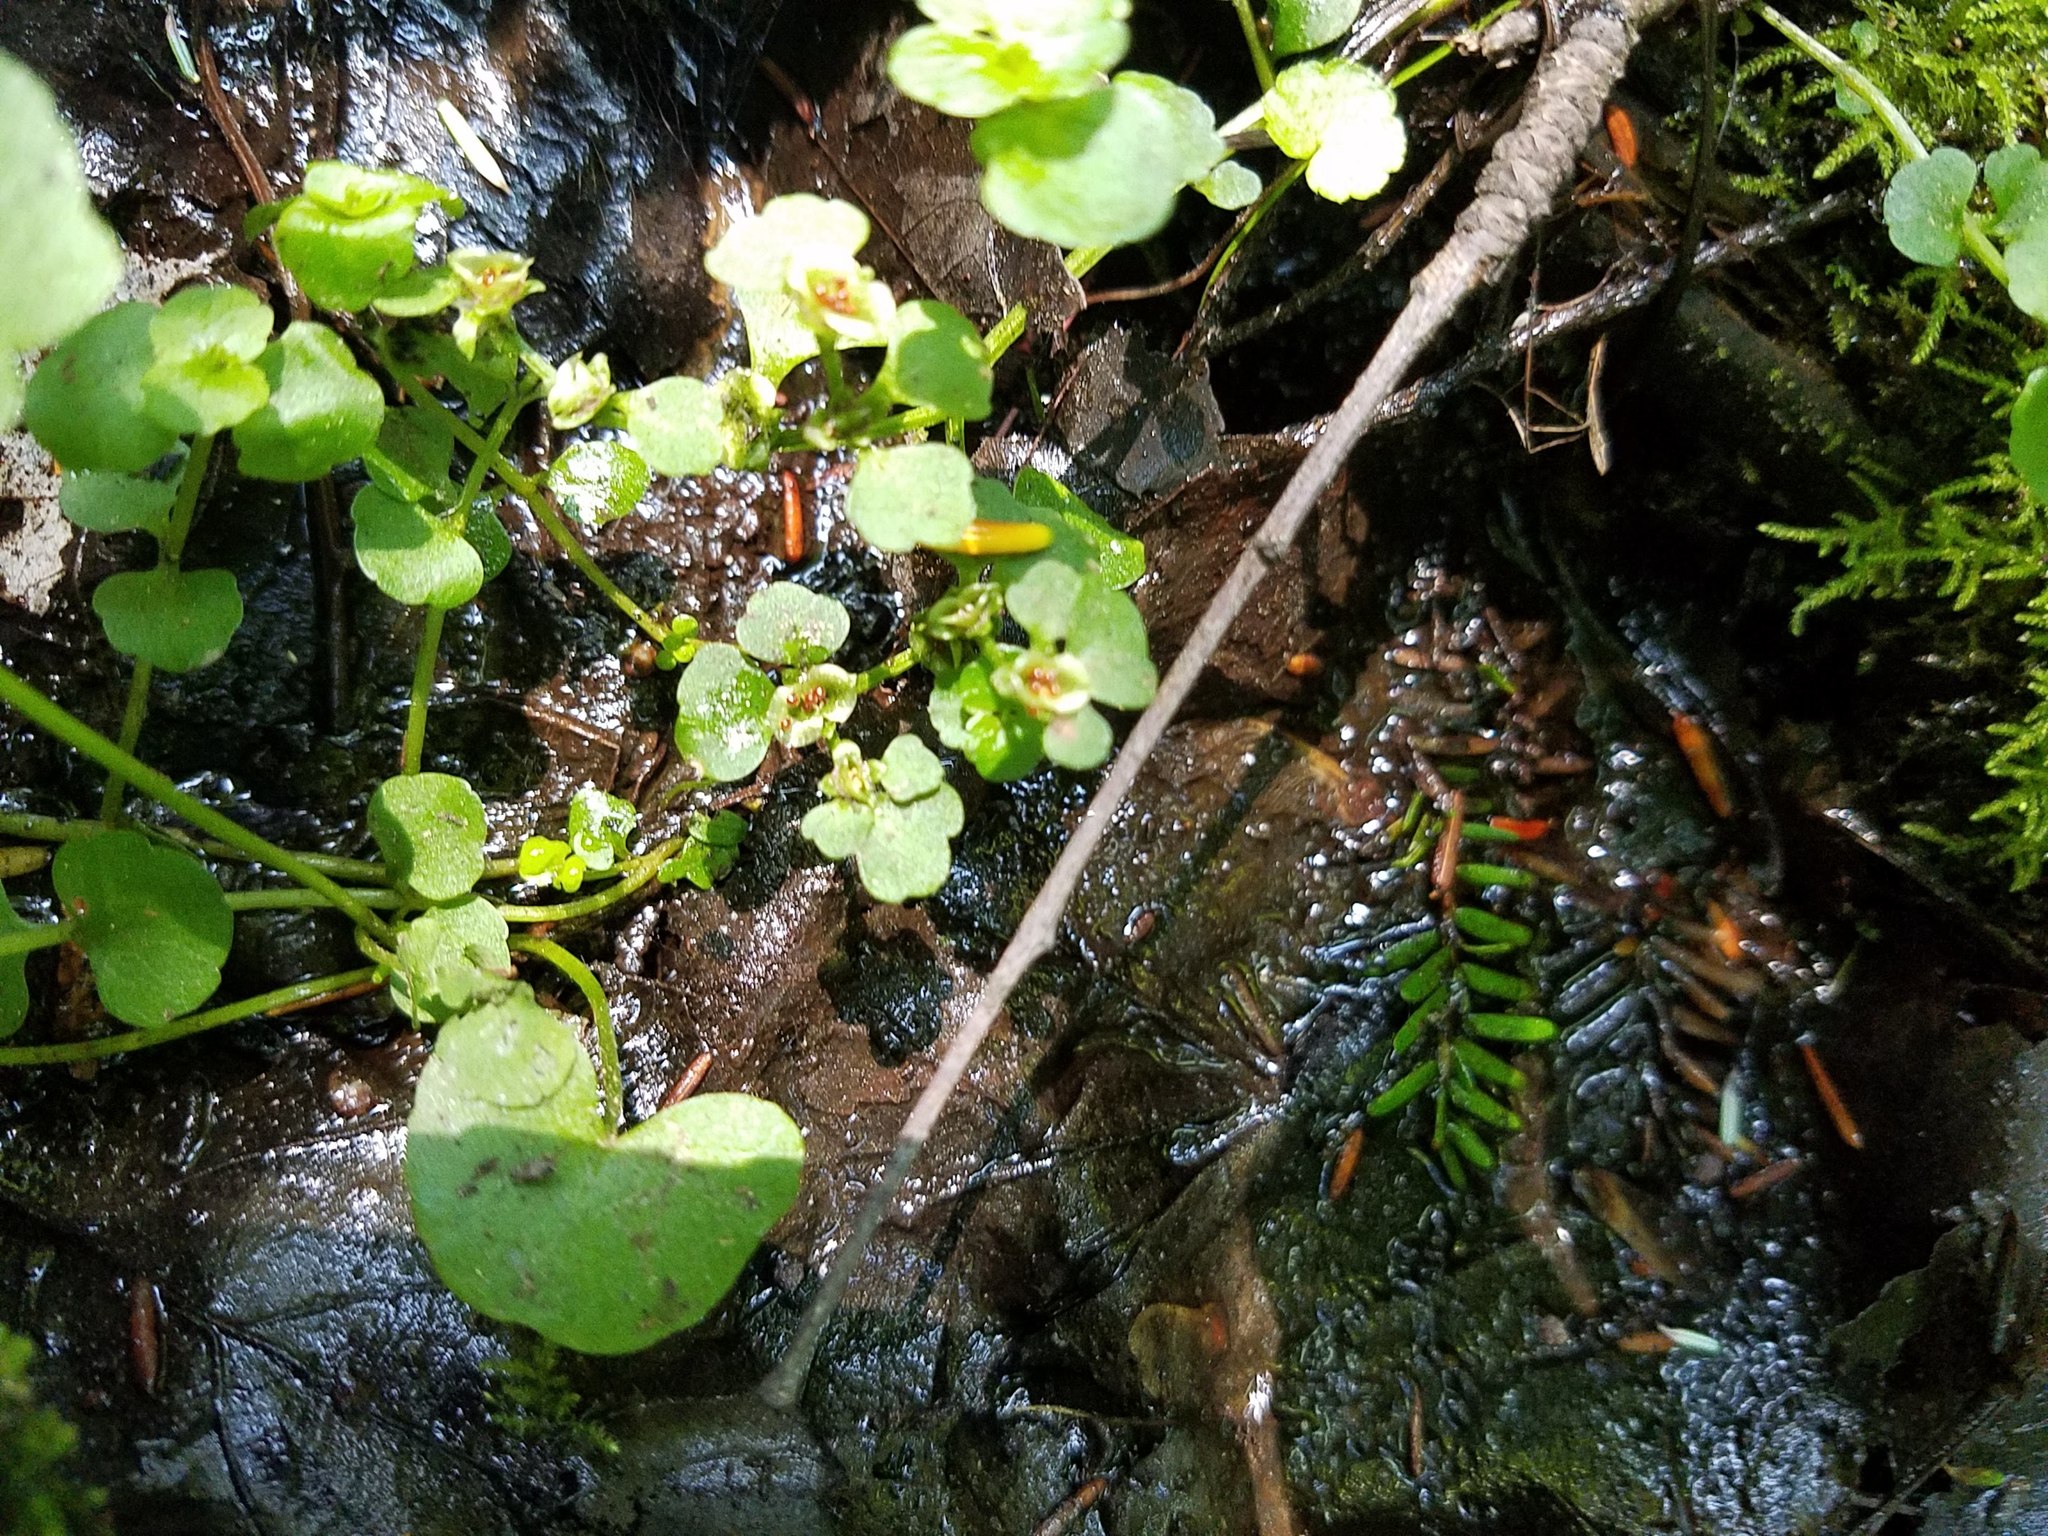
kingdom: Plantae
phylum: Tracheophyta
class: Magnoliopsida
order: Saxifragales
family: Saxifragaceae
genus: Chrysosplenium
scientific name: Chrysosplenium americanum
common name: American golden-saxifrage
